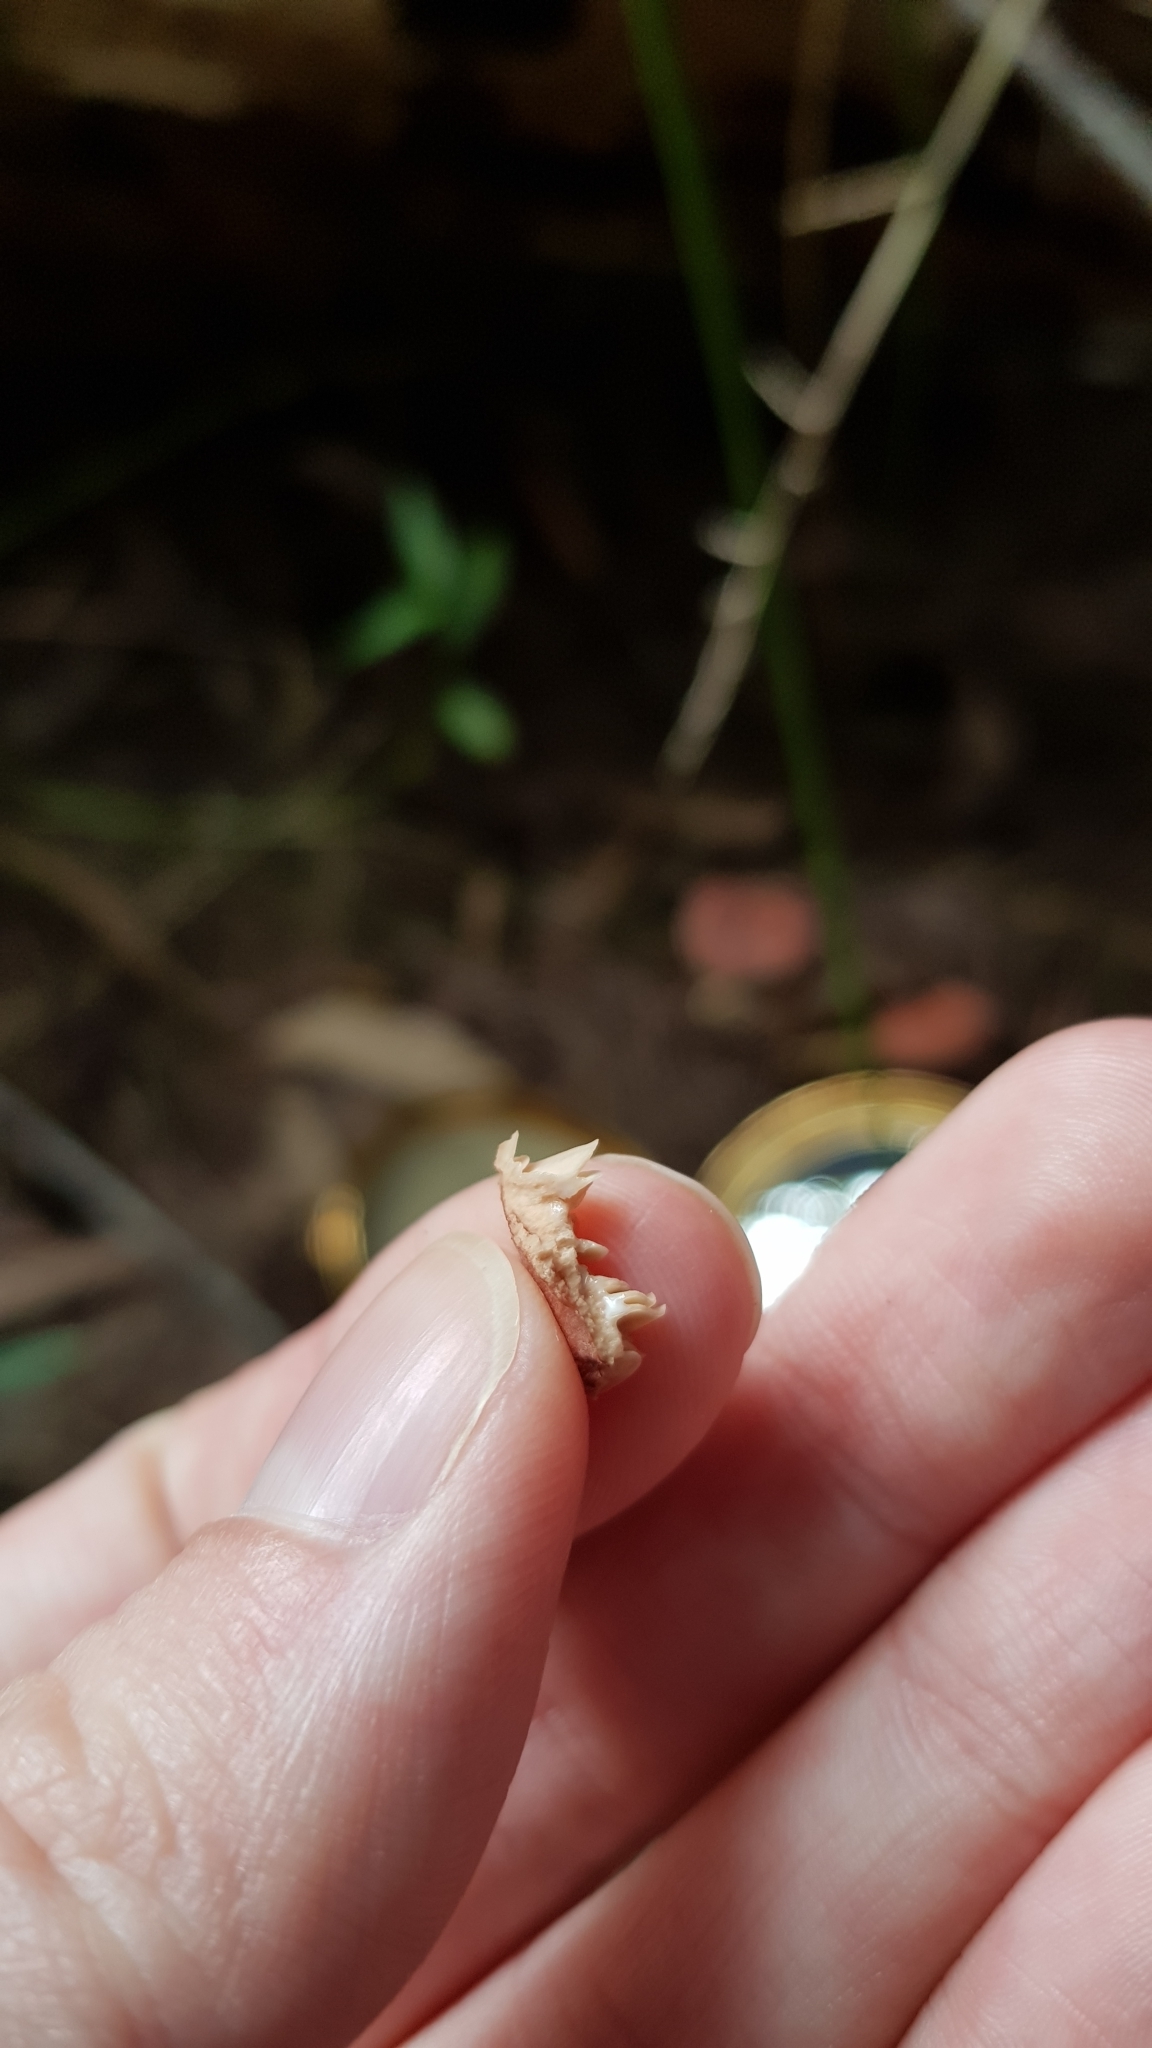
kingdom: Fungi
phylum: Basidiomycota
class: Agaricomycetes
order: Russulales
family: Russulaceae
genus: Lactarius
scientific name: Lactarius eucalypti
